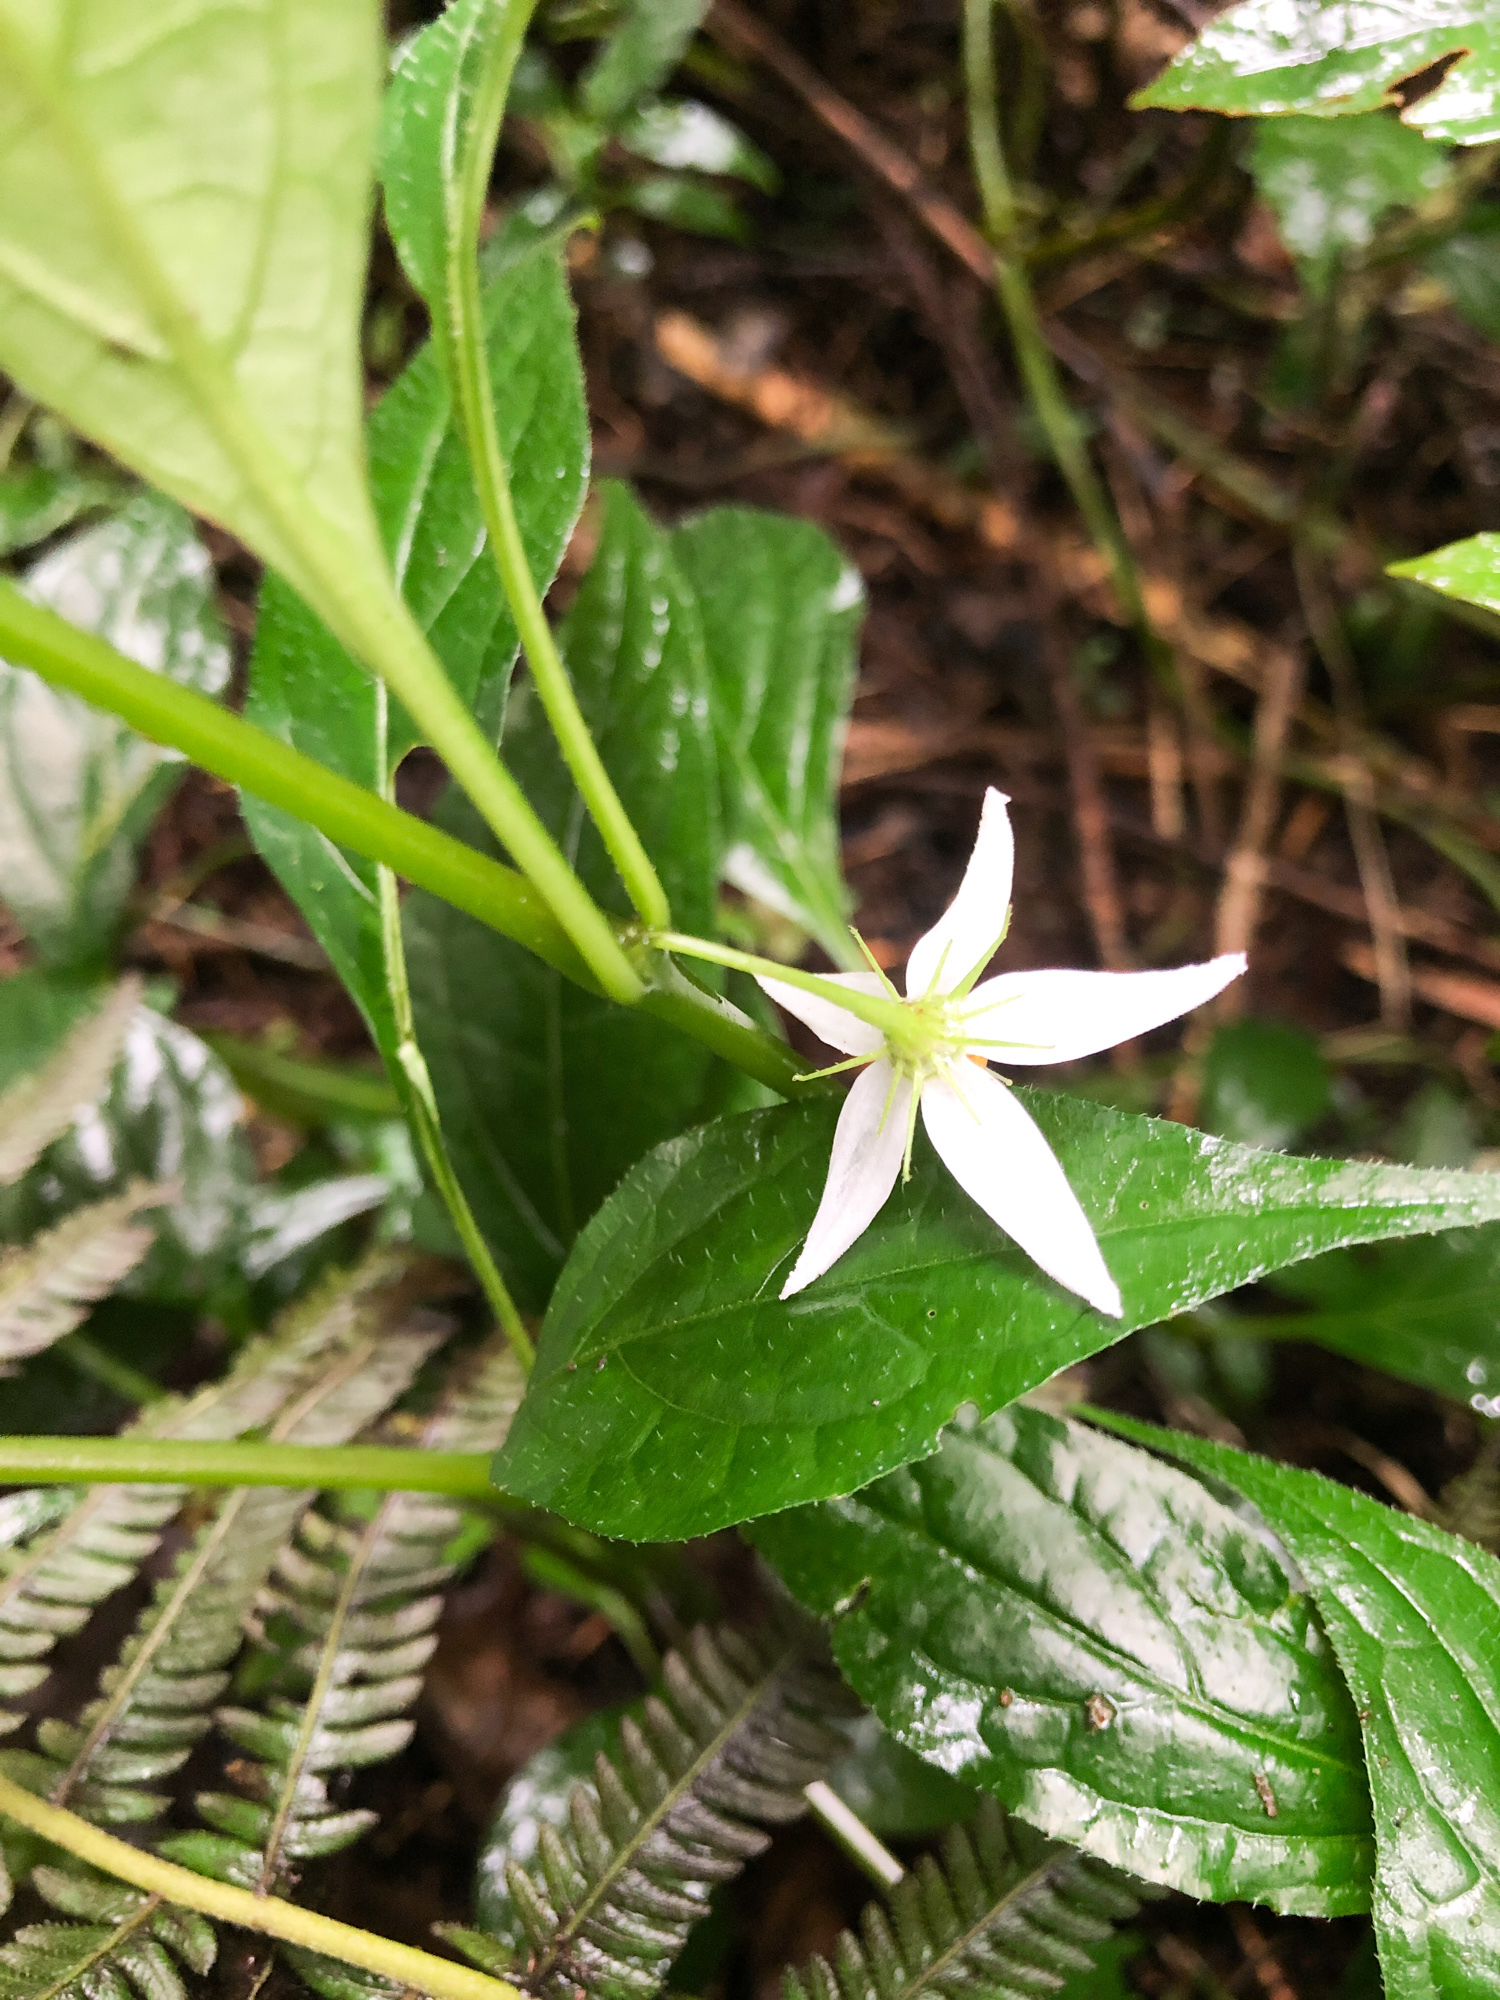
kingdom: Plantae
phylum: Tracheophyta
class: Magnoliopsida
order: Solanales
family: Solanaceae
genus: Lycianthes
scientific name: Lycianthes lysimachioides
